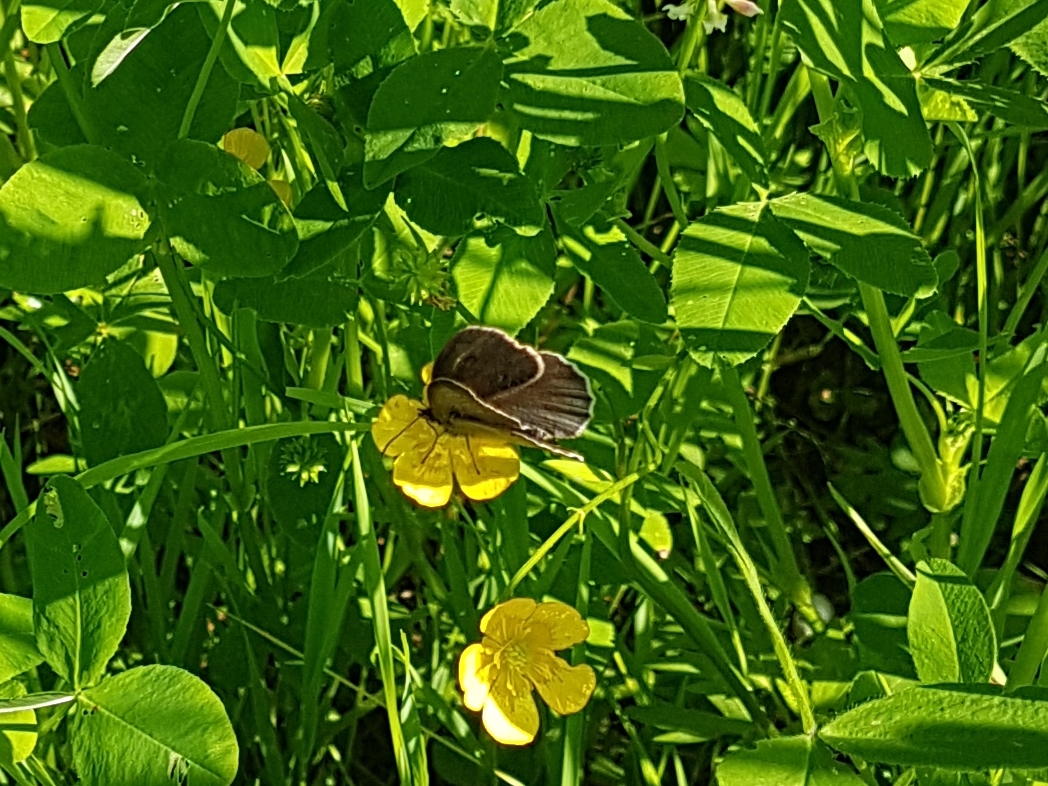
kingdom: Animalia
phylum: Arthropoda
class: Insecta
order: Lepidoptera
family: Nymphalidae
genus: Aphantopus
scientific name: Aphantopus hyperantus
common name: Ringlet
